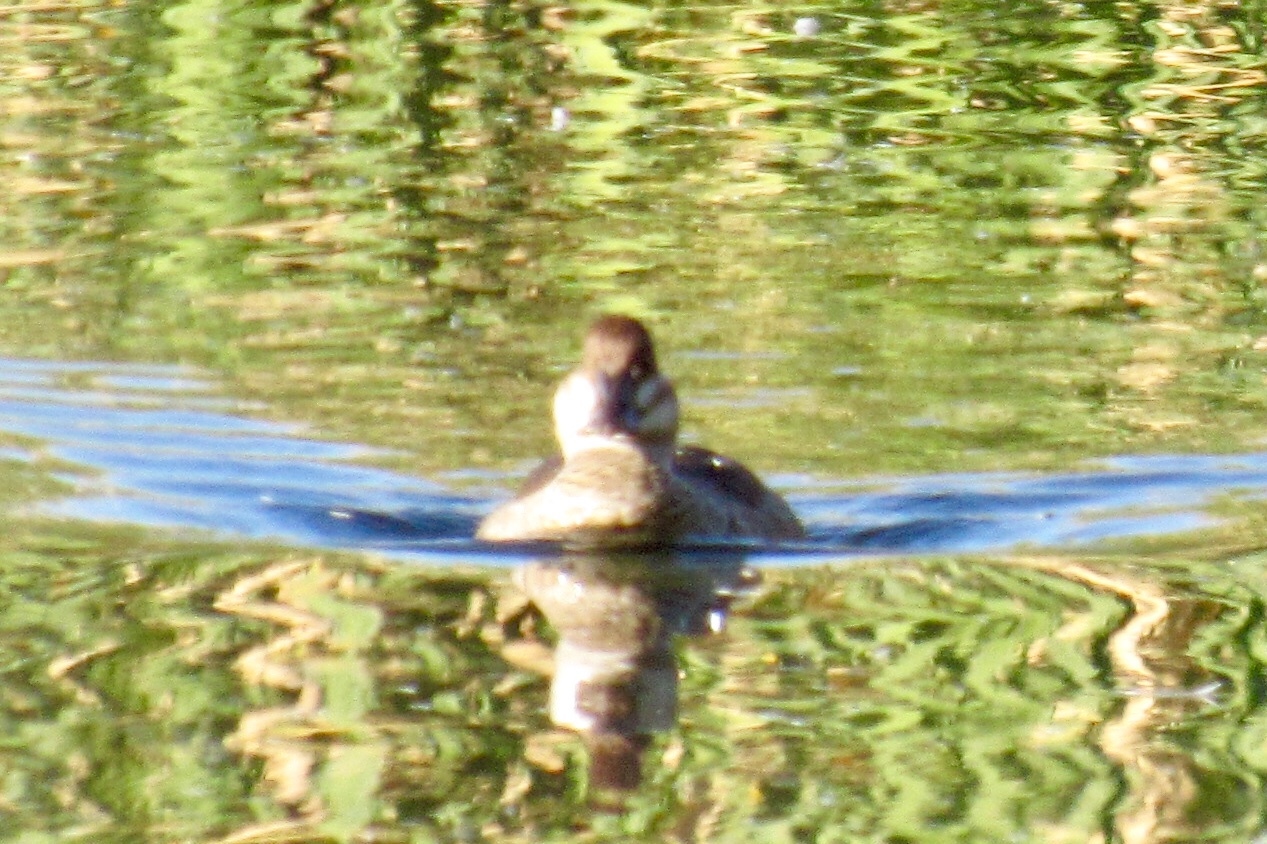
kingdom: Animalia
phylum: Chordata
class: Aves
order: Anseriformes
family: Anatidae
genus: Oxyura
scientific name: Oxyura jamaicensis
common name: Ruddy duck
